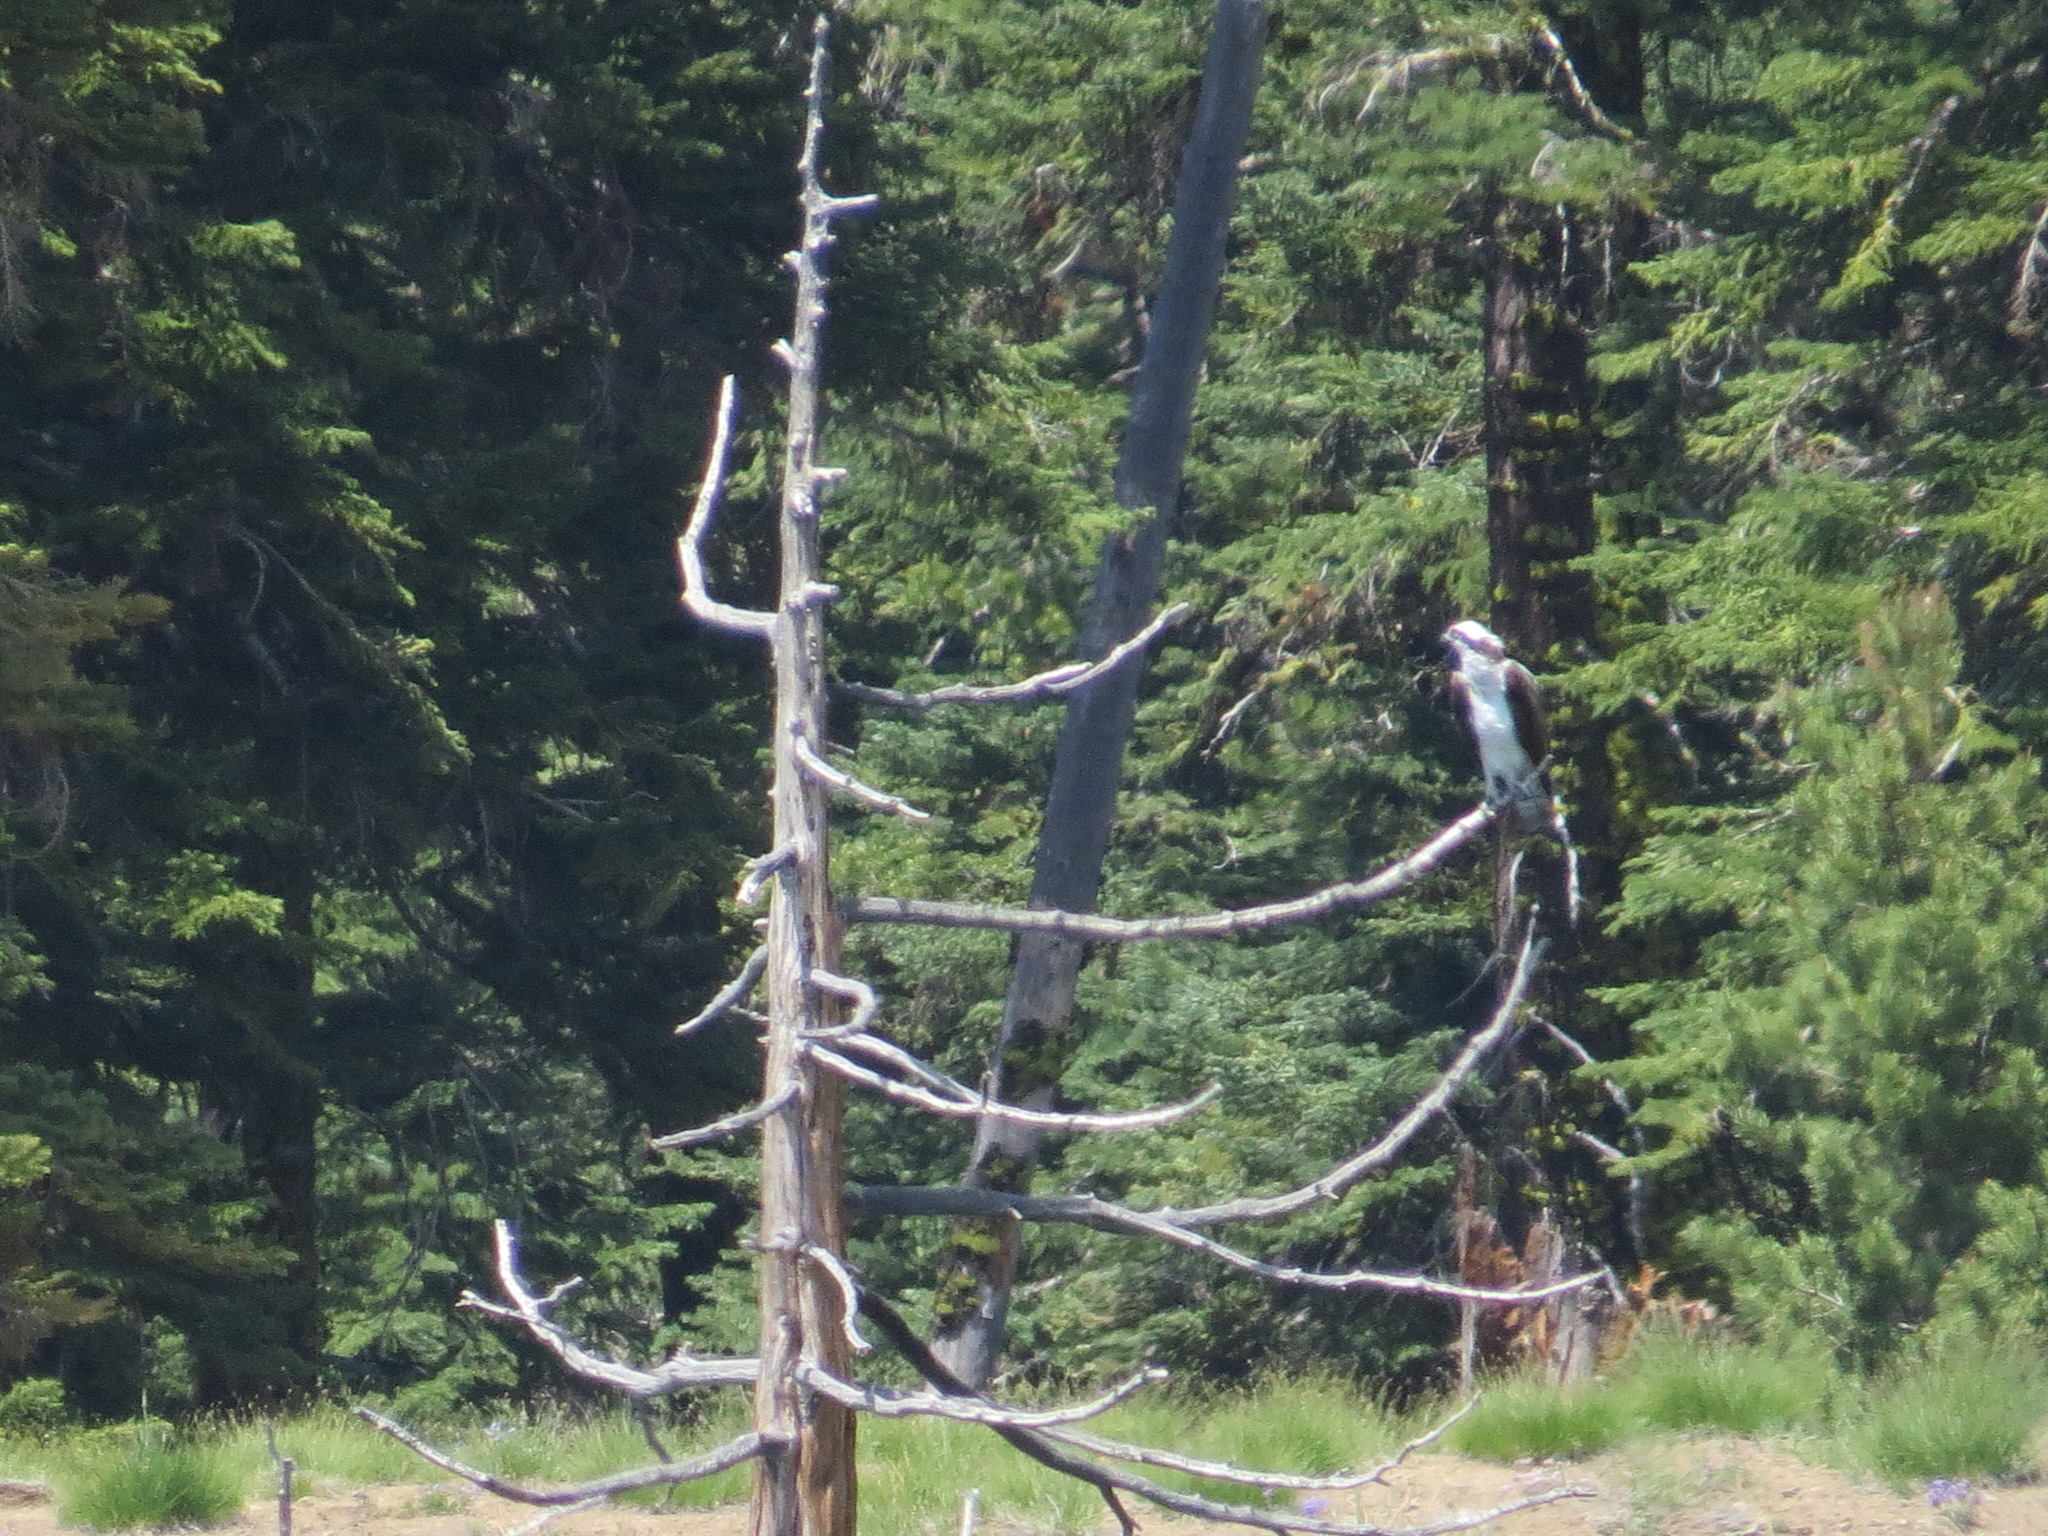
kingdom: Animalia
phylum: Chordata
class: Aves
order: Accipitriformes
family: Pandionidae
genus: Pandion
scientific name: Pandion haliaetus
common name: Osprey
